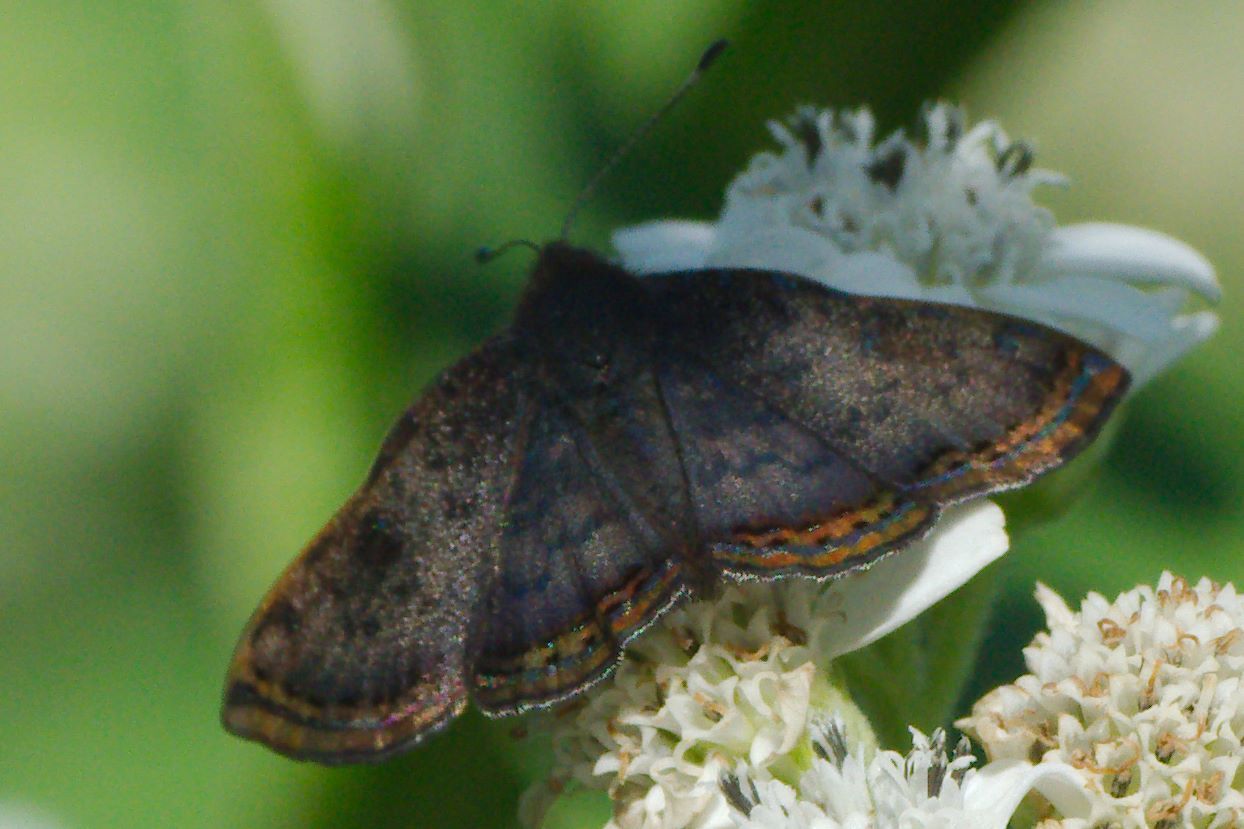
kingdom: Animalia
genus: Caria
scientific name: Caria ino
